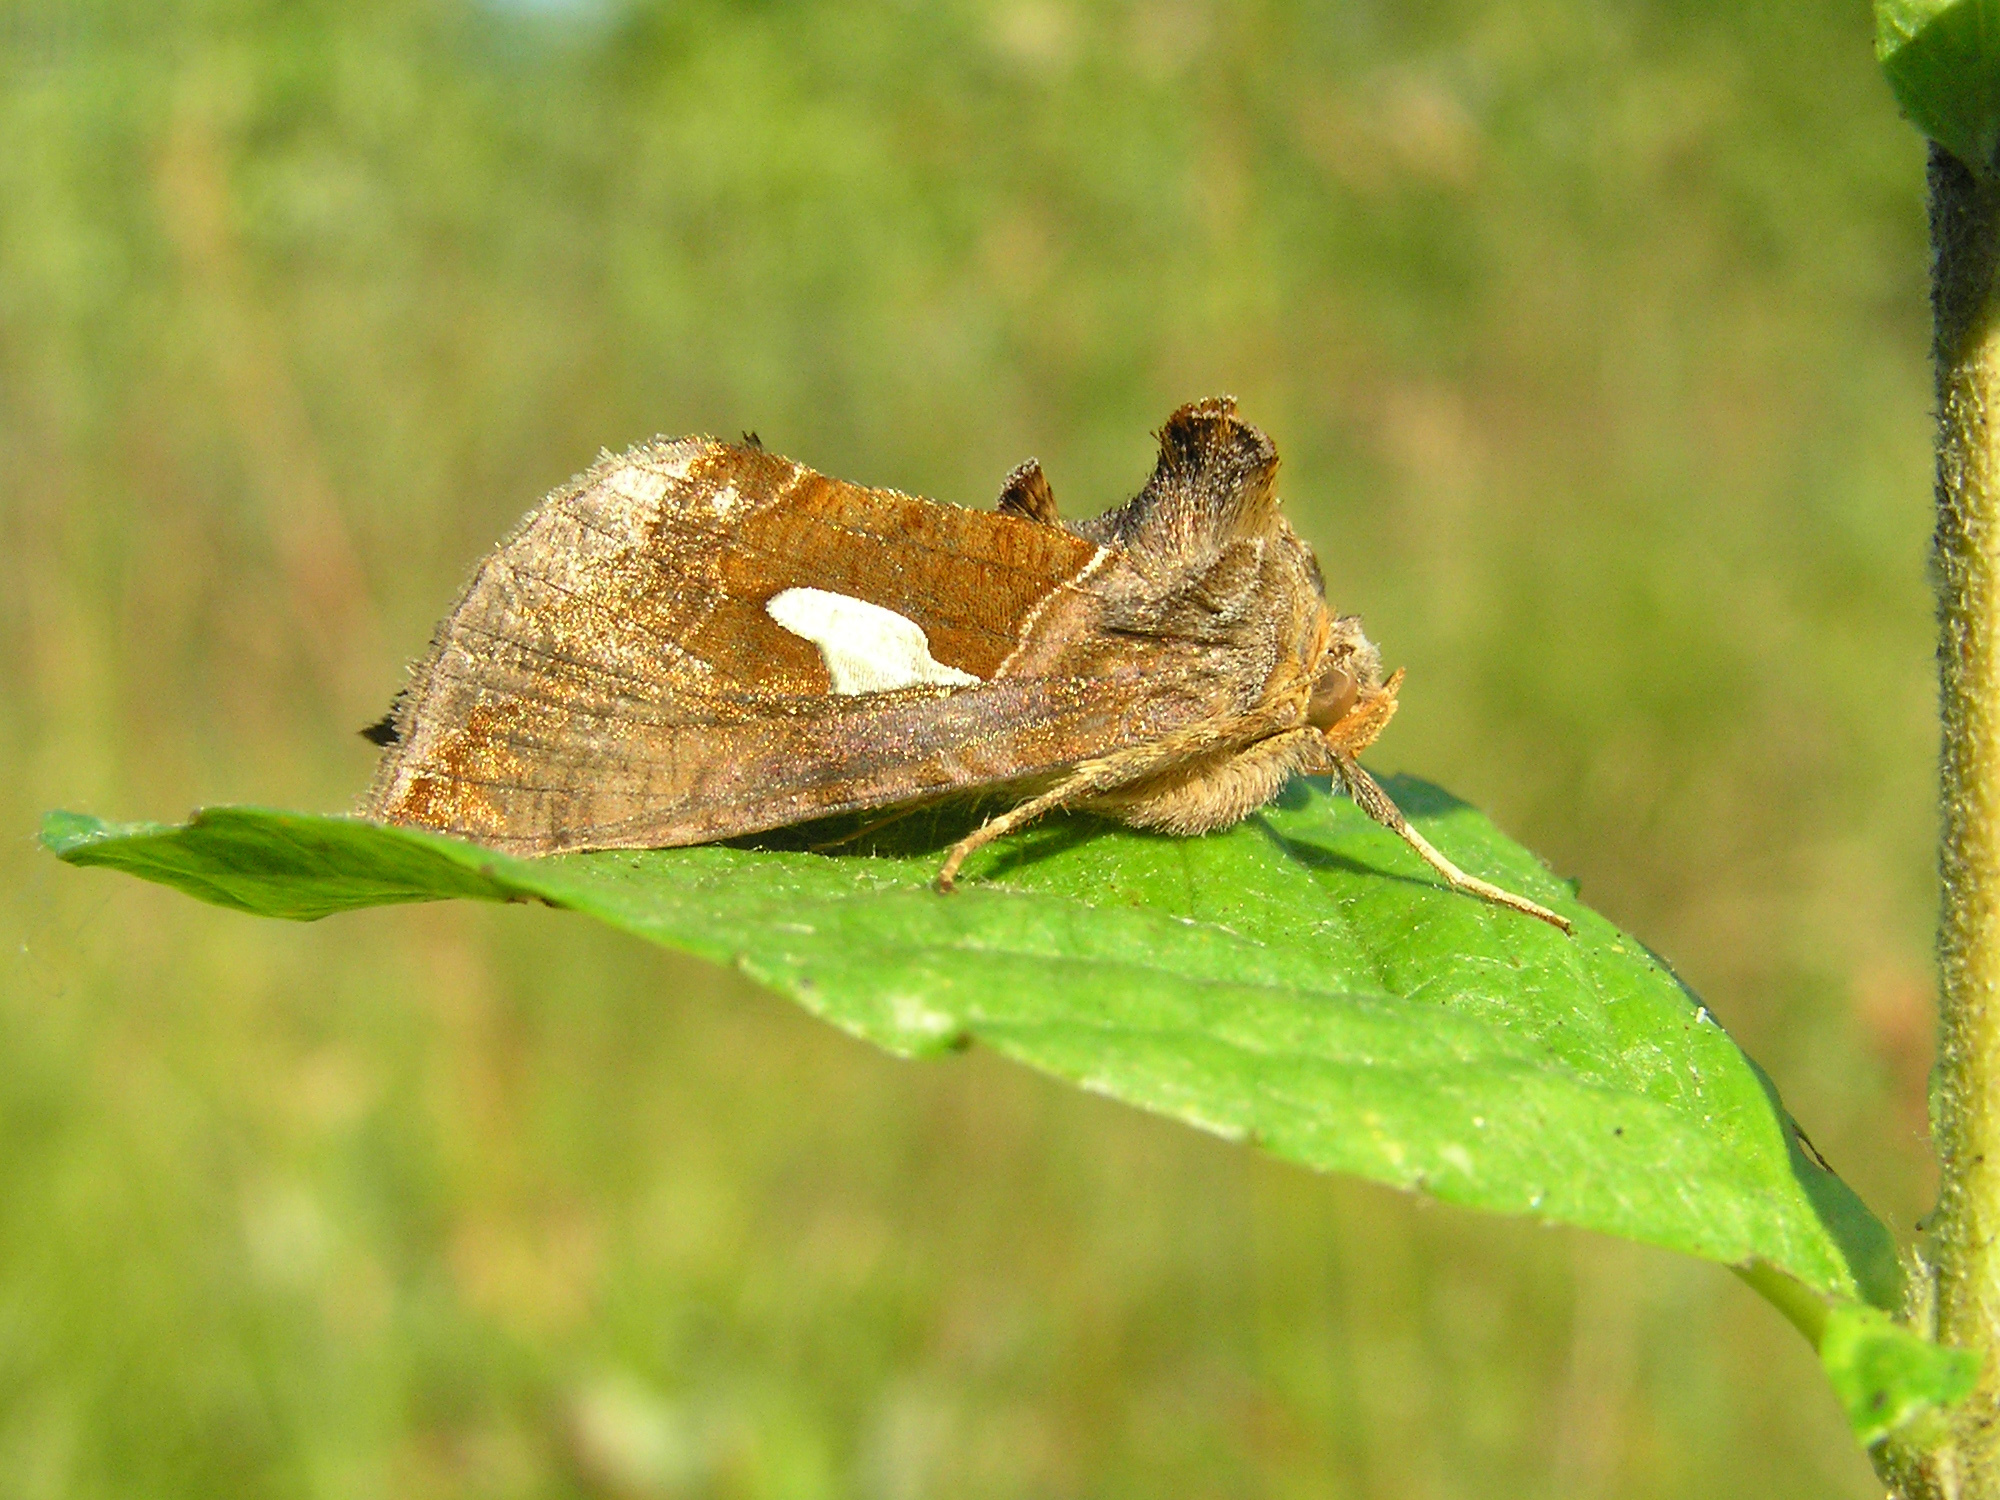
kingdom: Animalia
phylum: Arthropoda
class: Insecta
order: Lepidoptera
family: Noctuidae
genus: Autographa
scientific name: Autographa bractea
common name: Gold spangle
